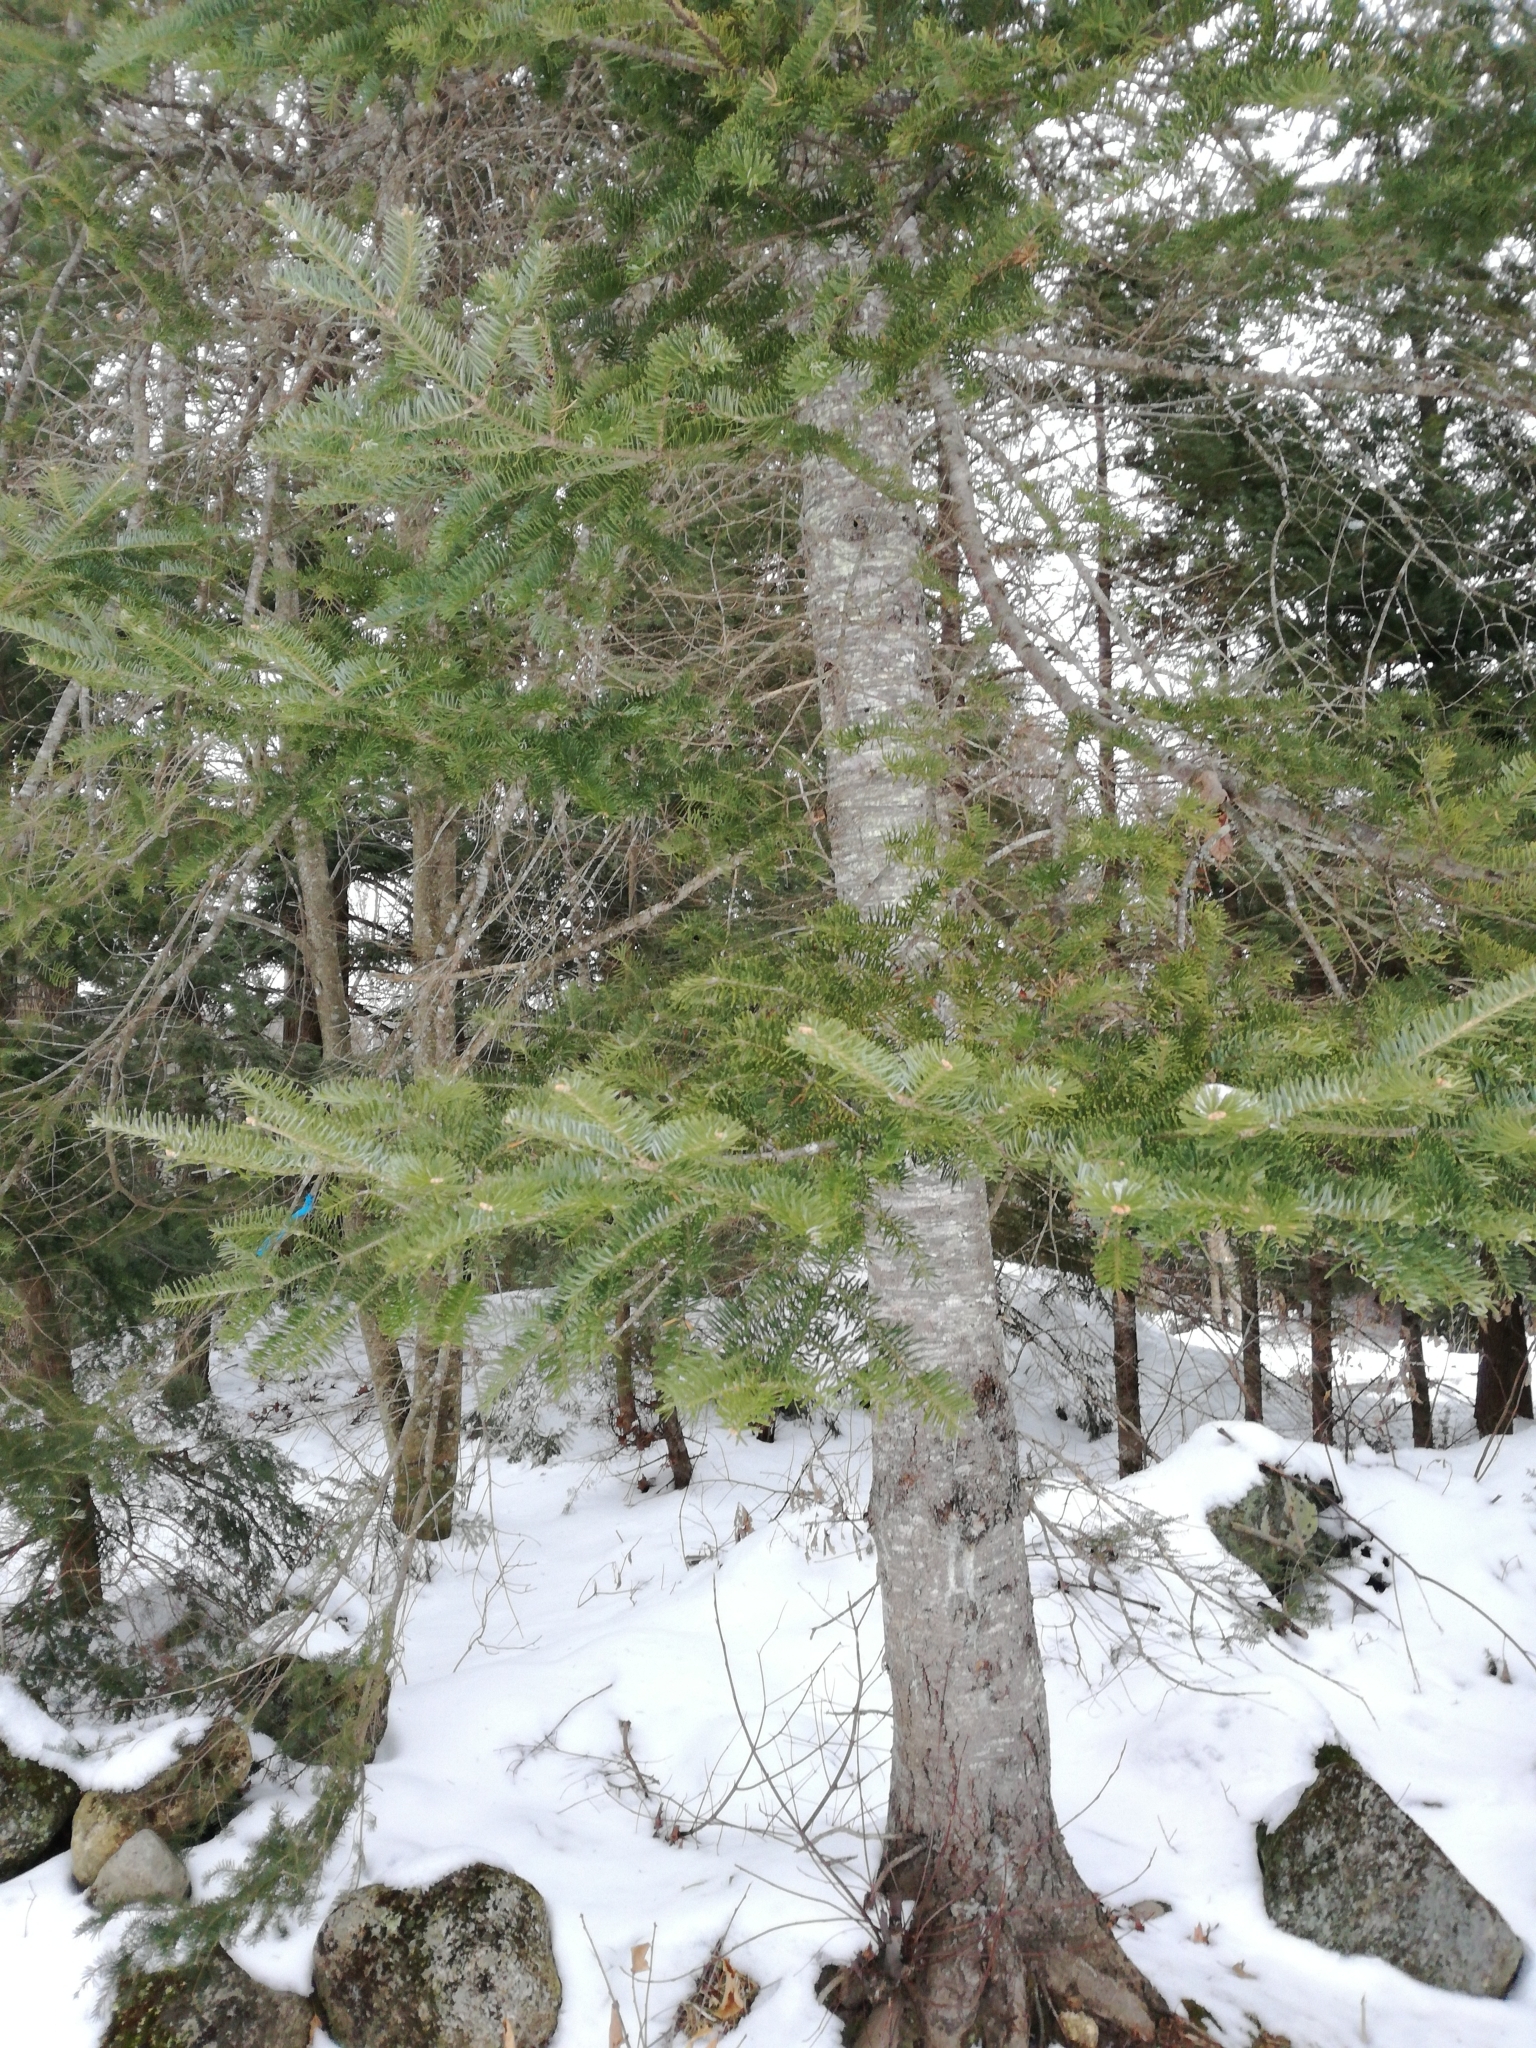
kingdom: Plantae
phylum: Tracheophyta
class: Pinopsida
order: Pinales
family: Pinaceae
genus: Abies
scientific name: Abies balsamea
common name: Balsam fir
